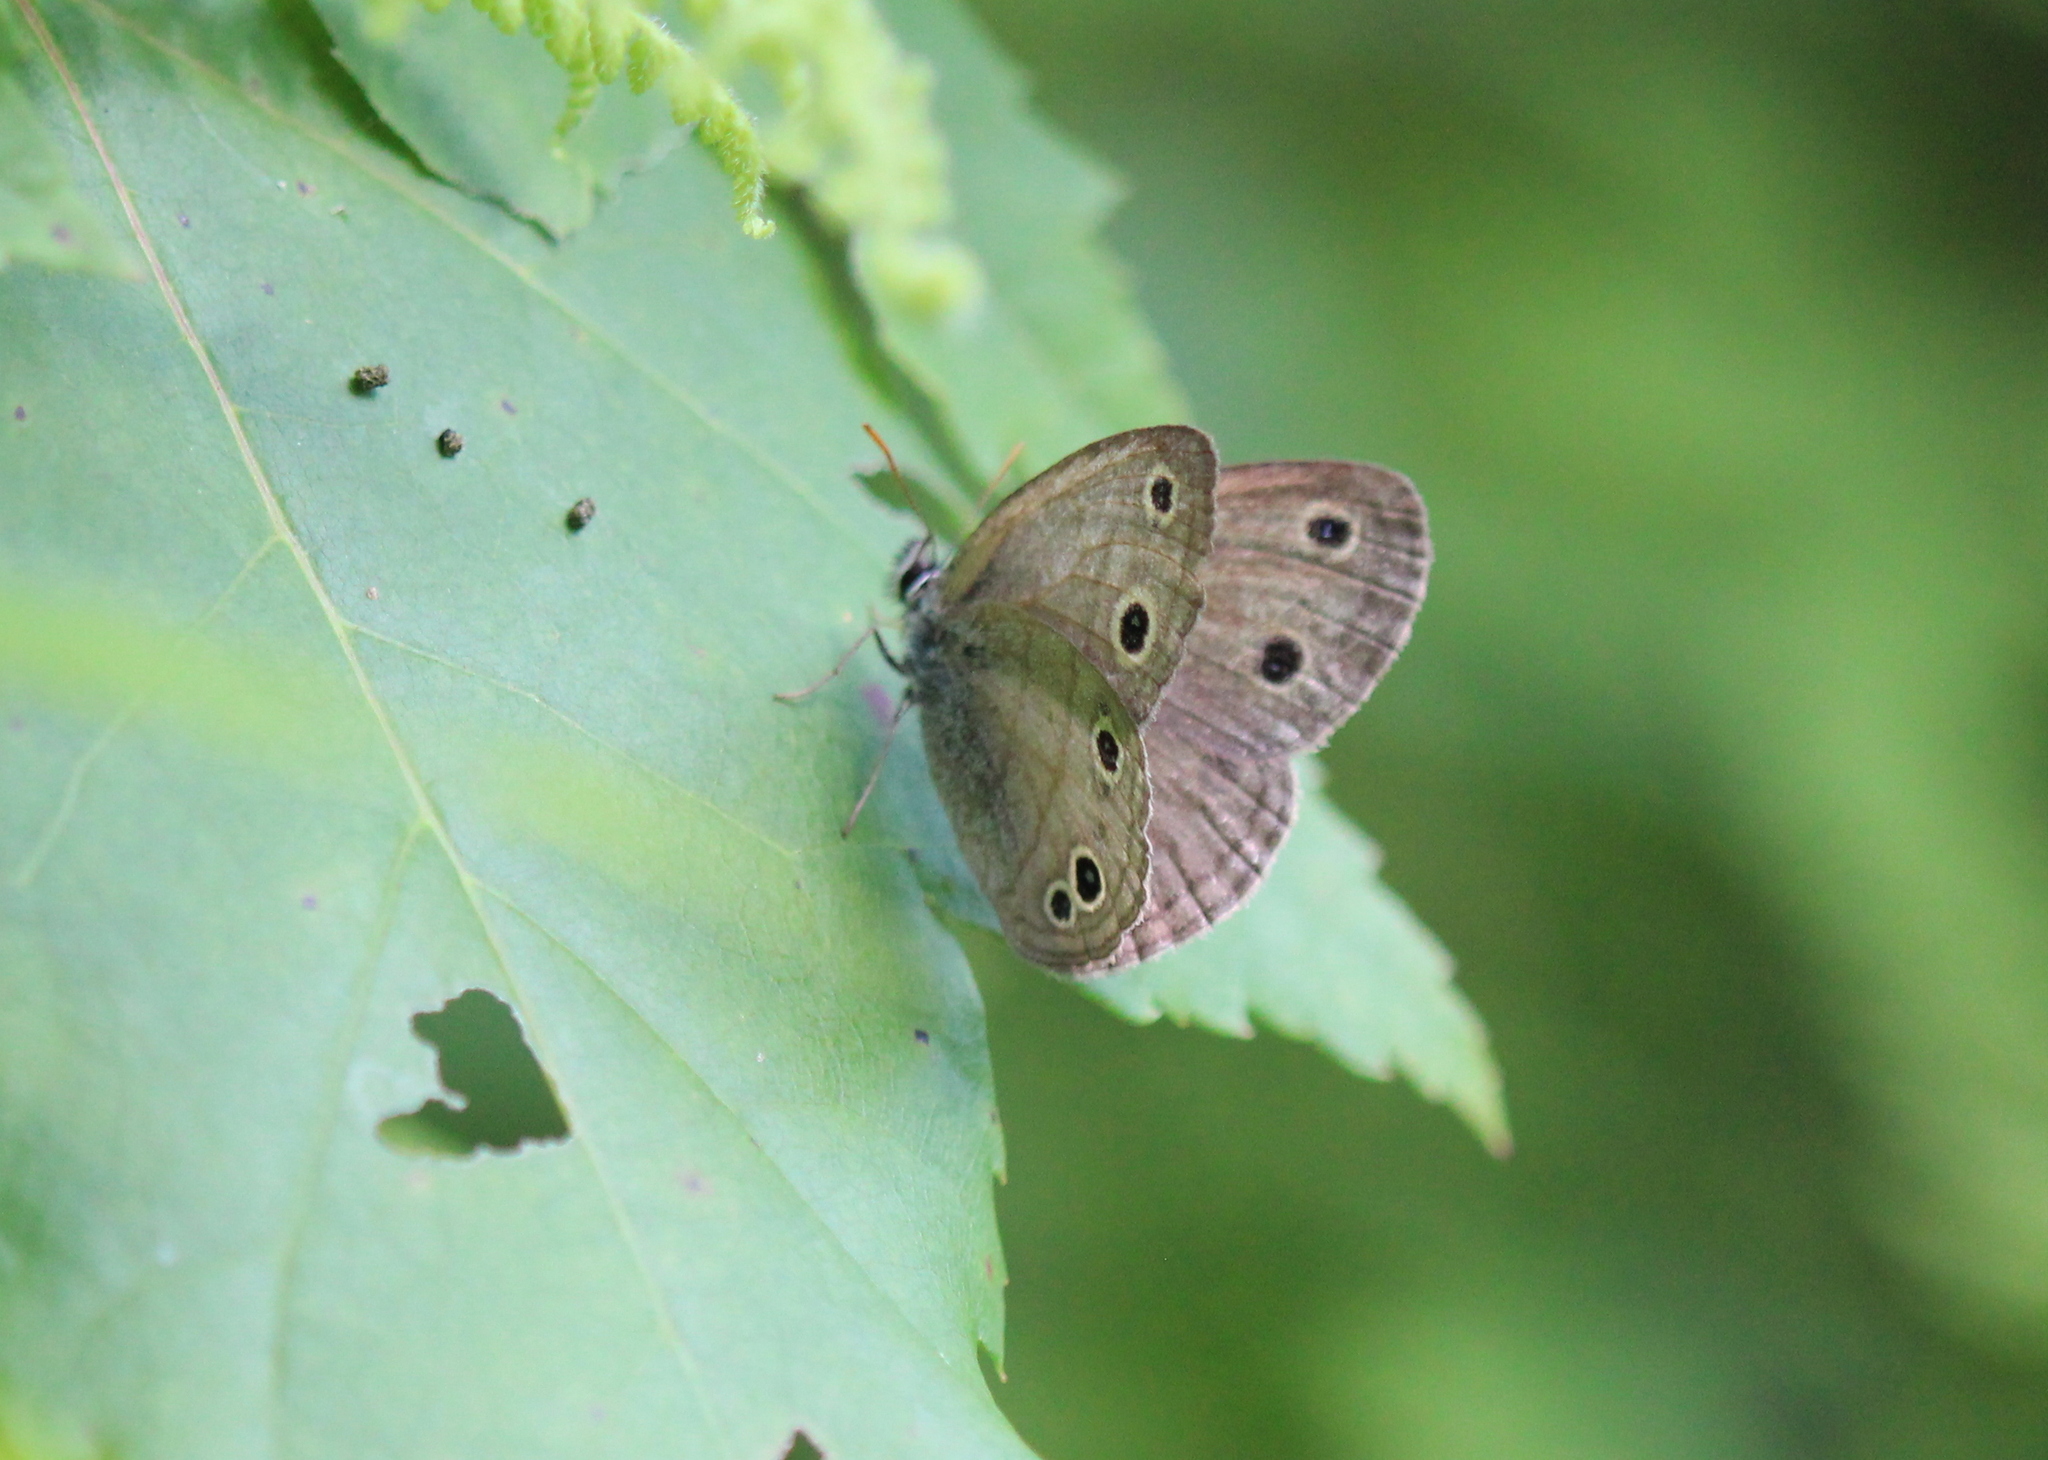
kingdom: Animalia
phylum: Arthropoda
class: Insecta
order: Lepidoptera
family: Nymphalidae
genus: Euptychia
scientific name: Euptychia cymela
